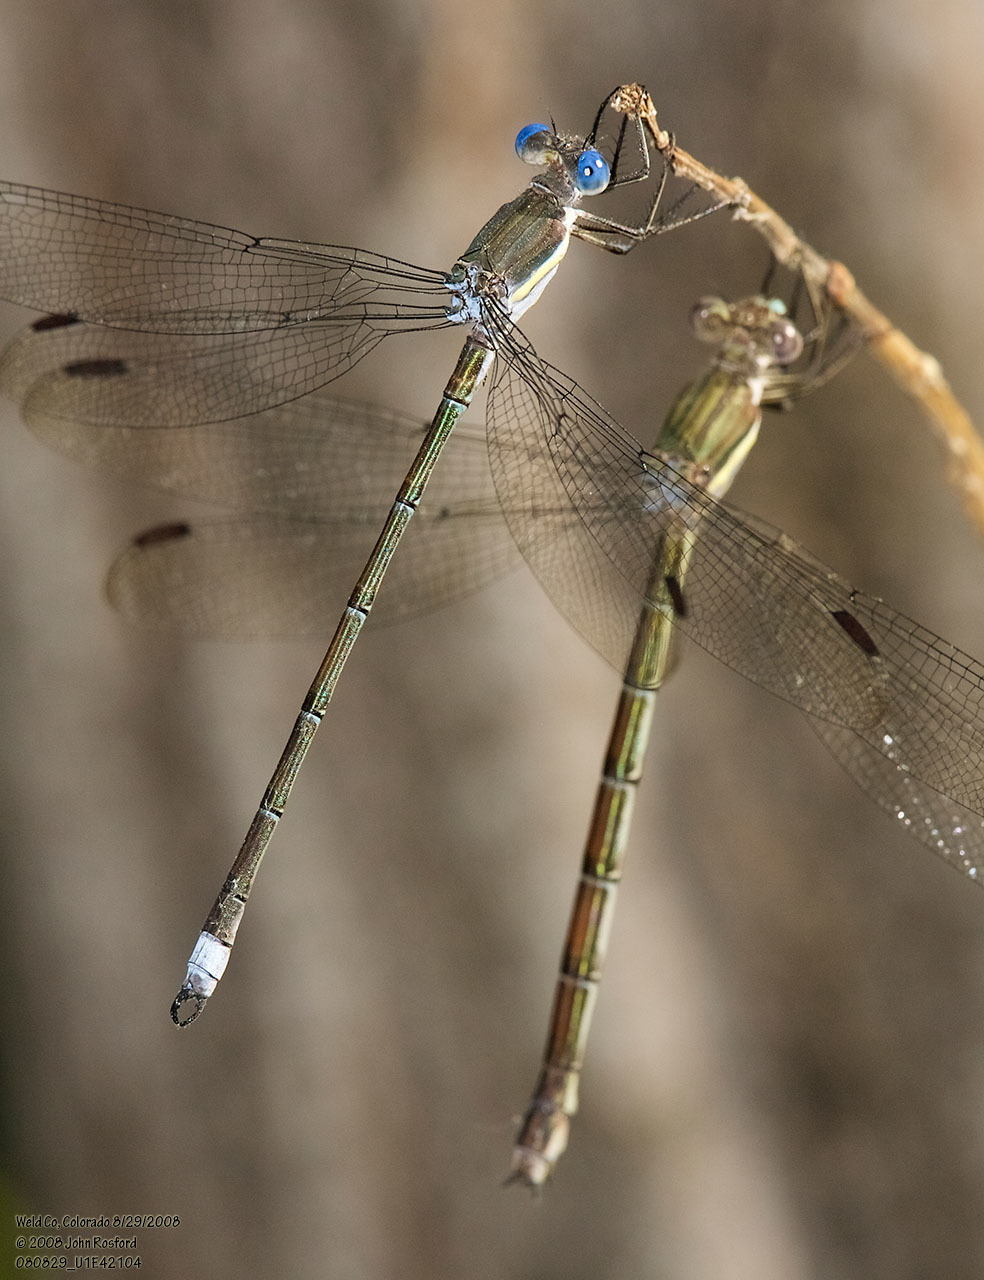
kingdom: Animalia
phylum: Arthropoda
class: Insecta
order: Odonata
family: Lestidae
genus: Archilestes
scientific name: Archilestes grandis
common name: Great spreadwing
